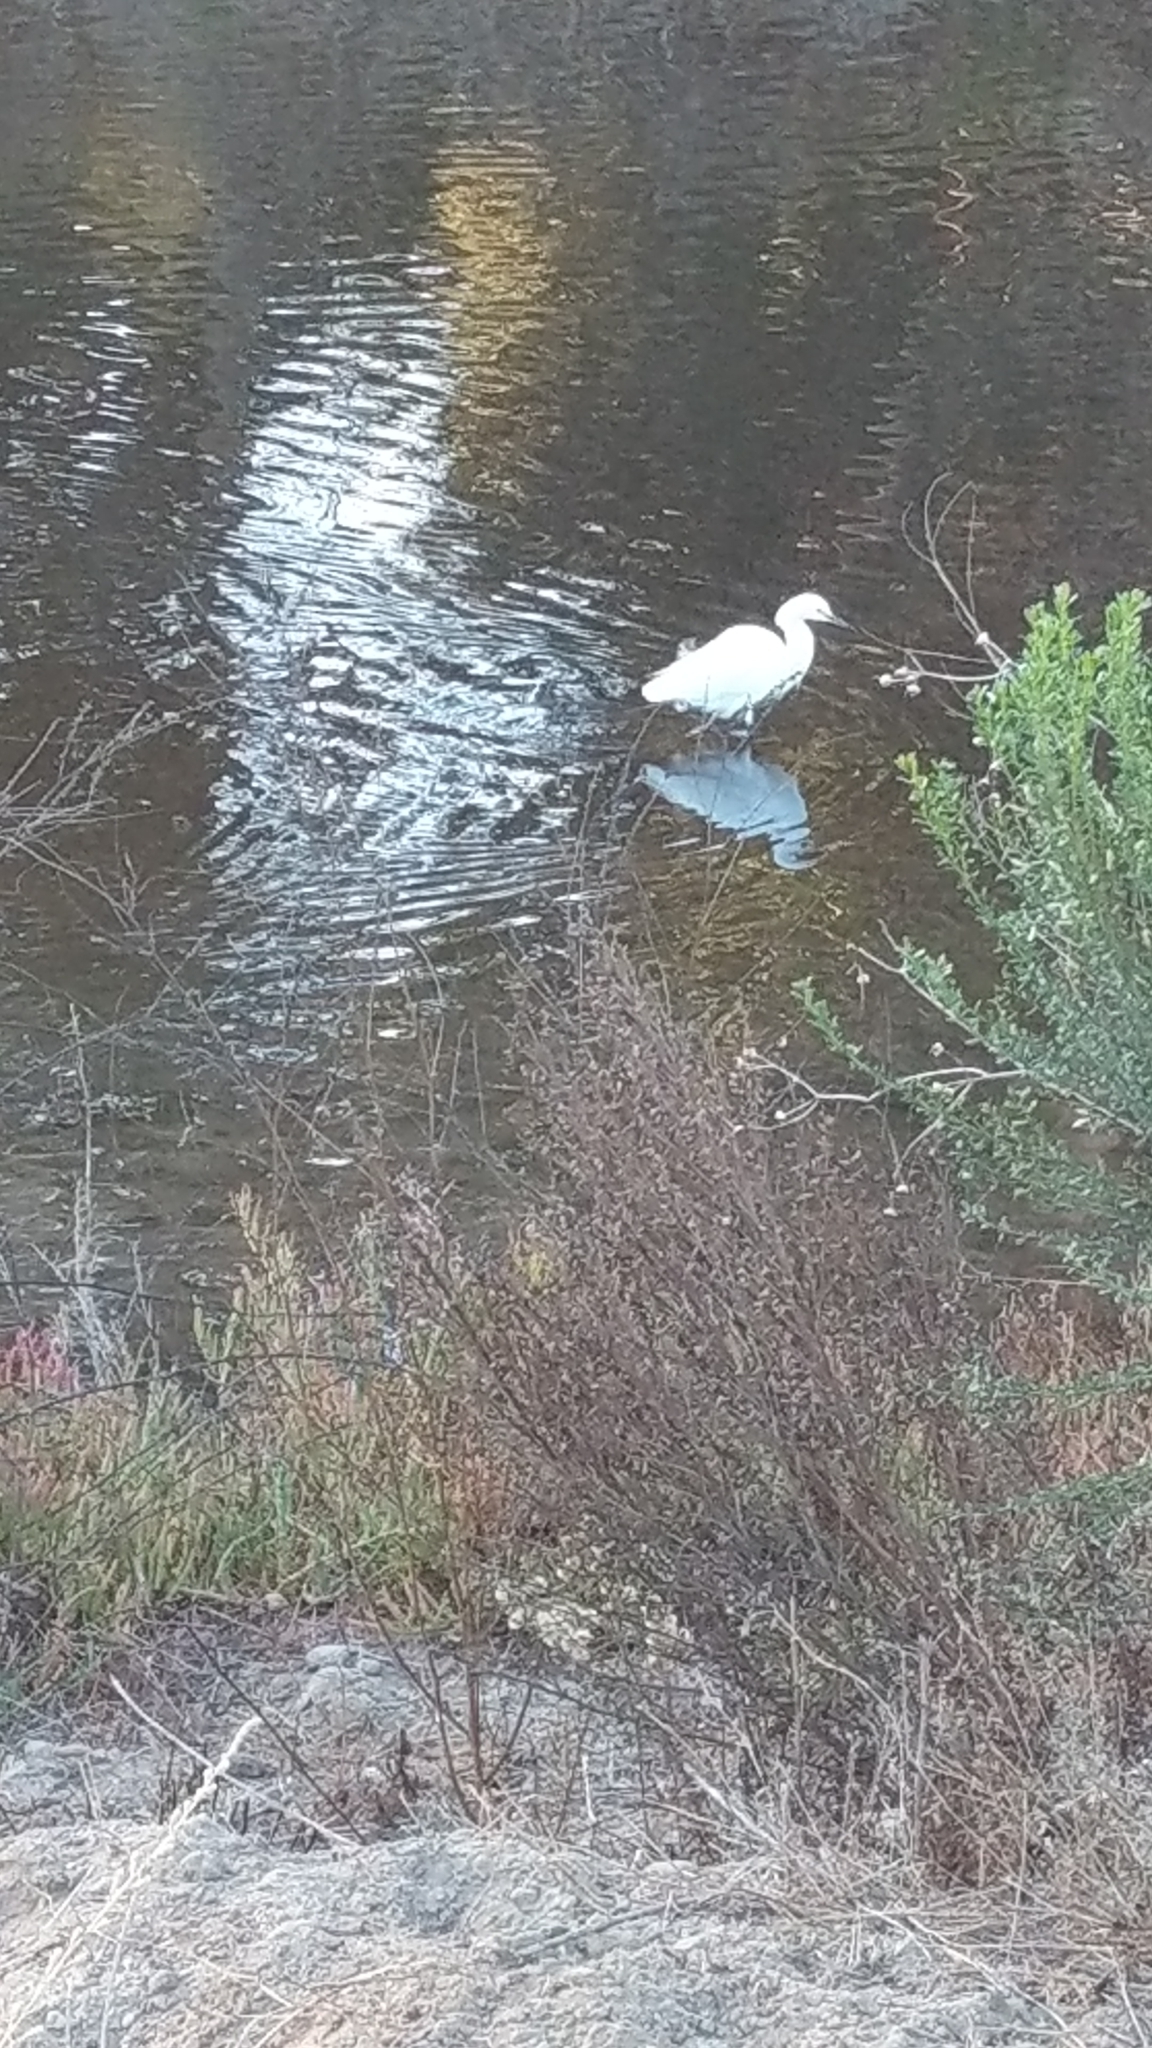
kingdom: Animalia
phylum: Chordata
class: Aves
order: Pelecaniformes
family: Ardeidae
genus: Egretta
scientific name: Egretta thula
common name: Snowy egret
